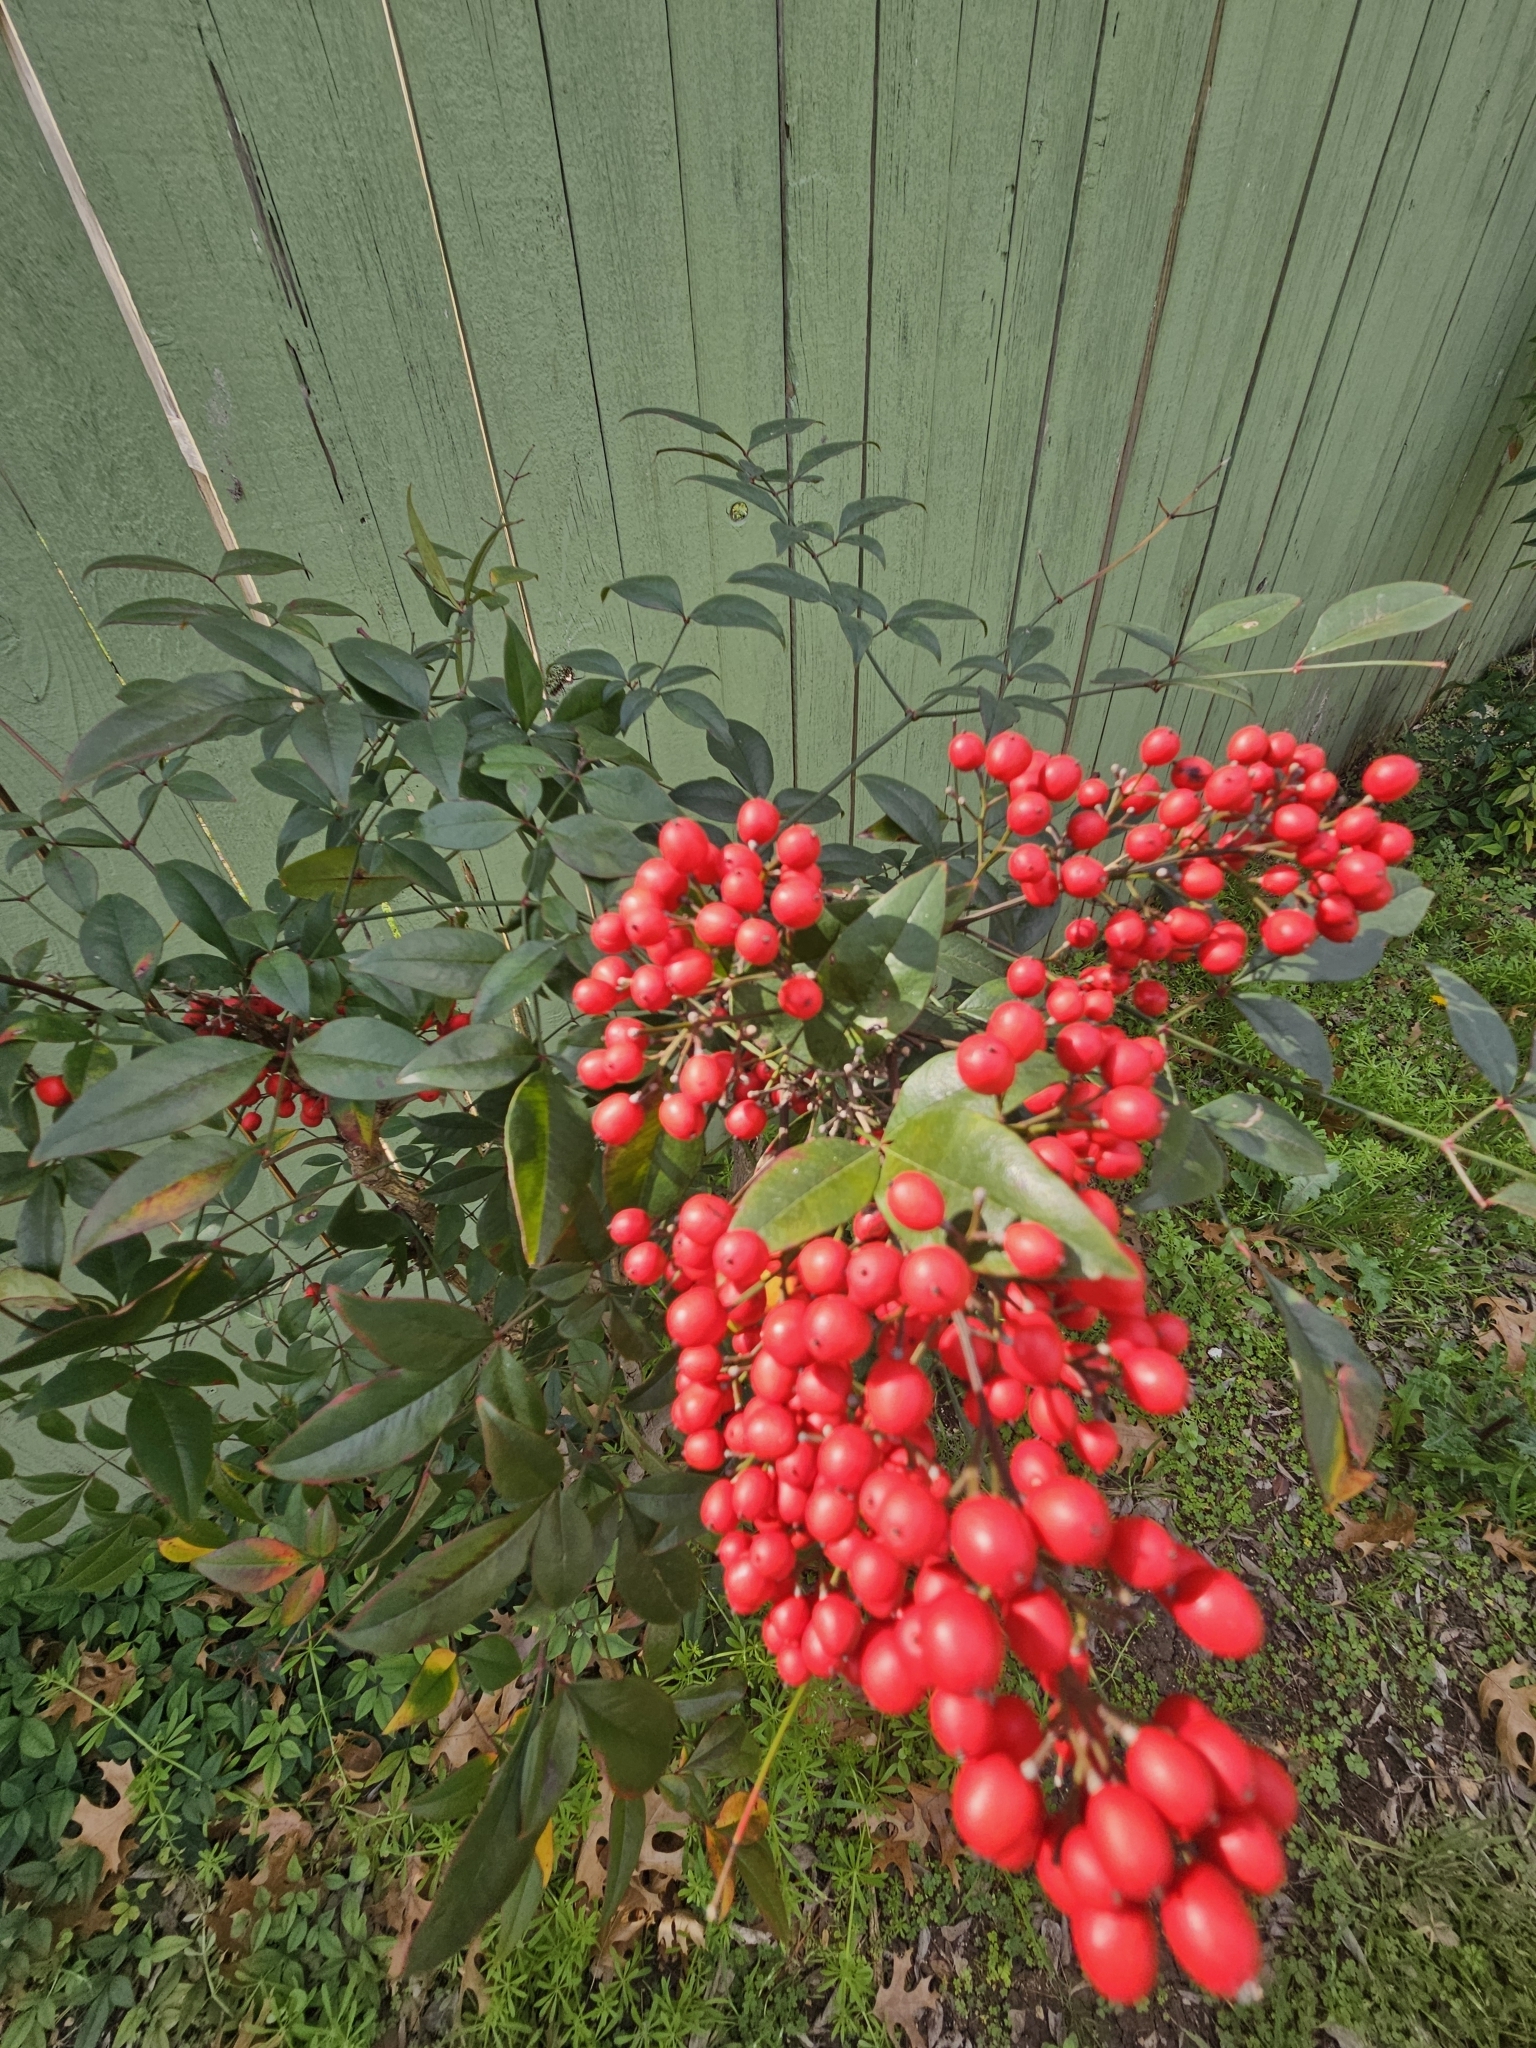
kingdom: Plantae
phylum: Tracheophyta
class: Magnoliopsida
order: Ranunculales
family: Berberidaceae
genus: Nandina
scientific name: Nandina domestica
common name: Sacred bamboo
